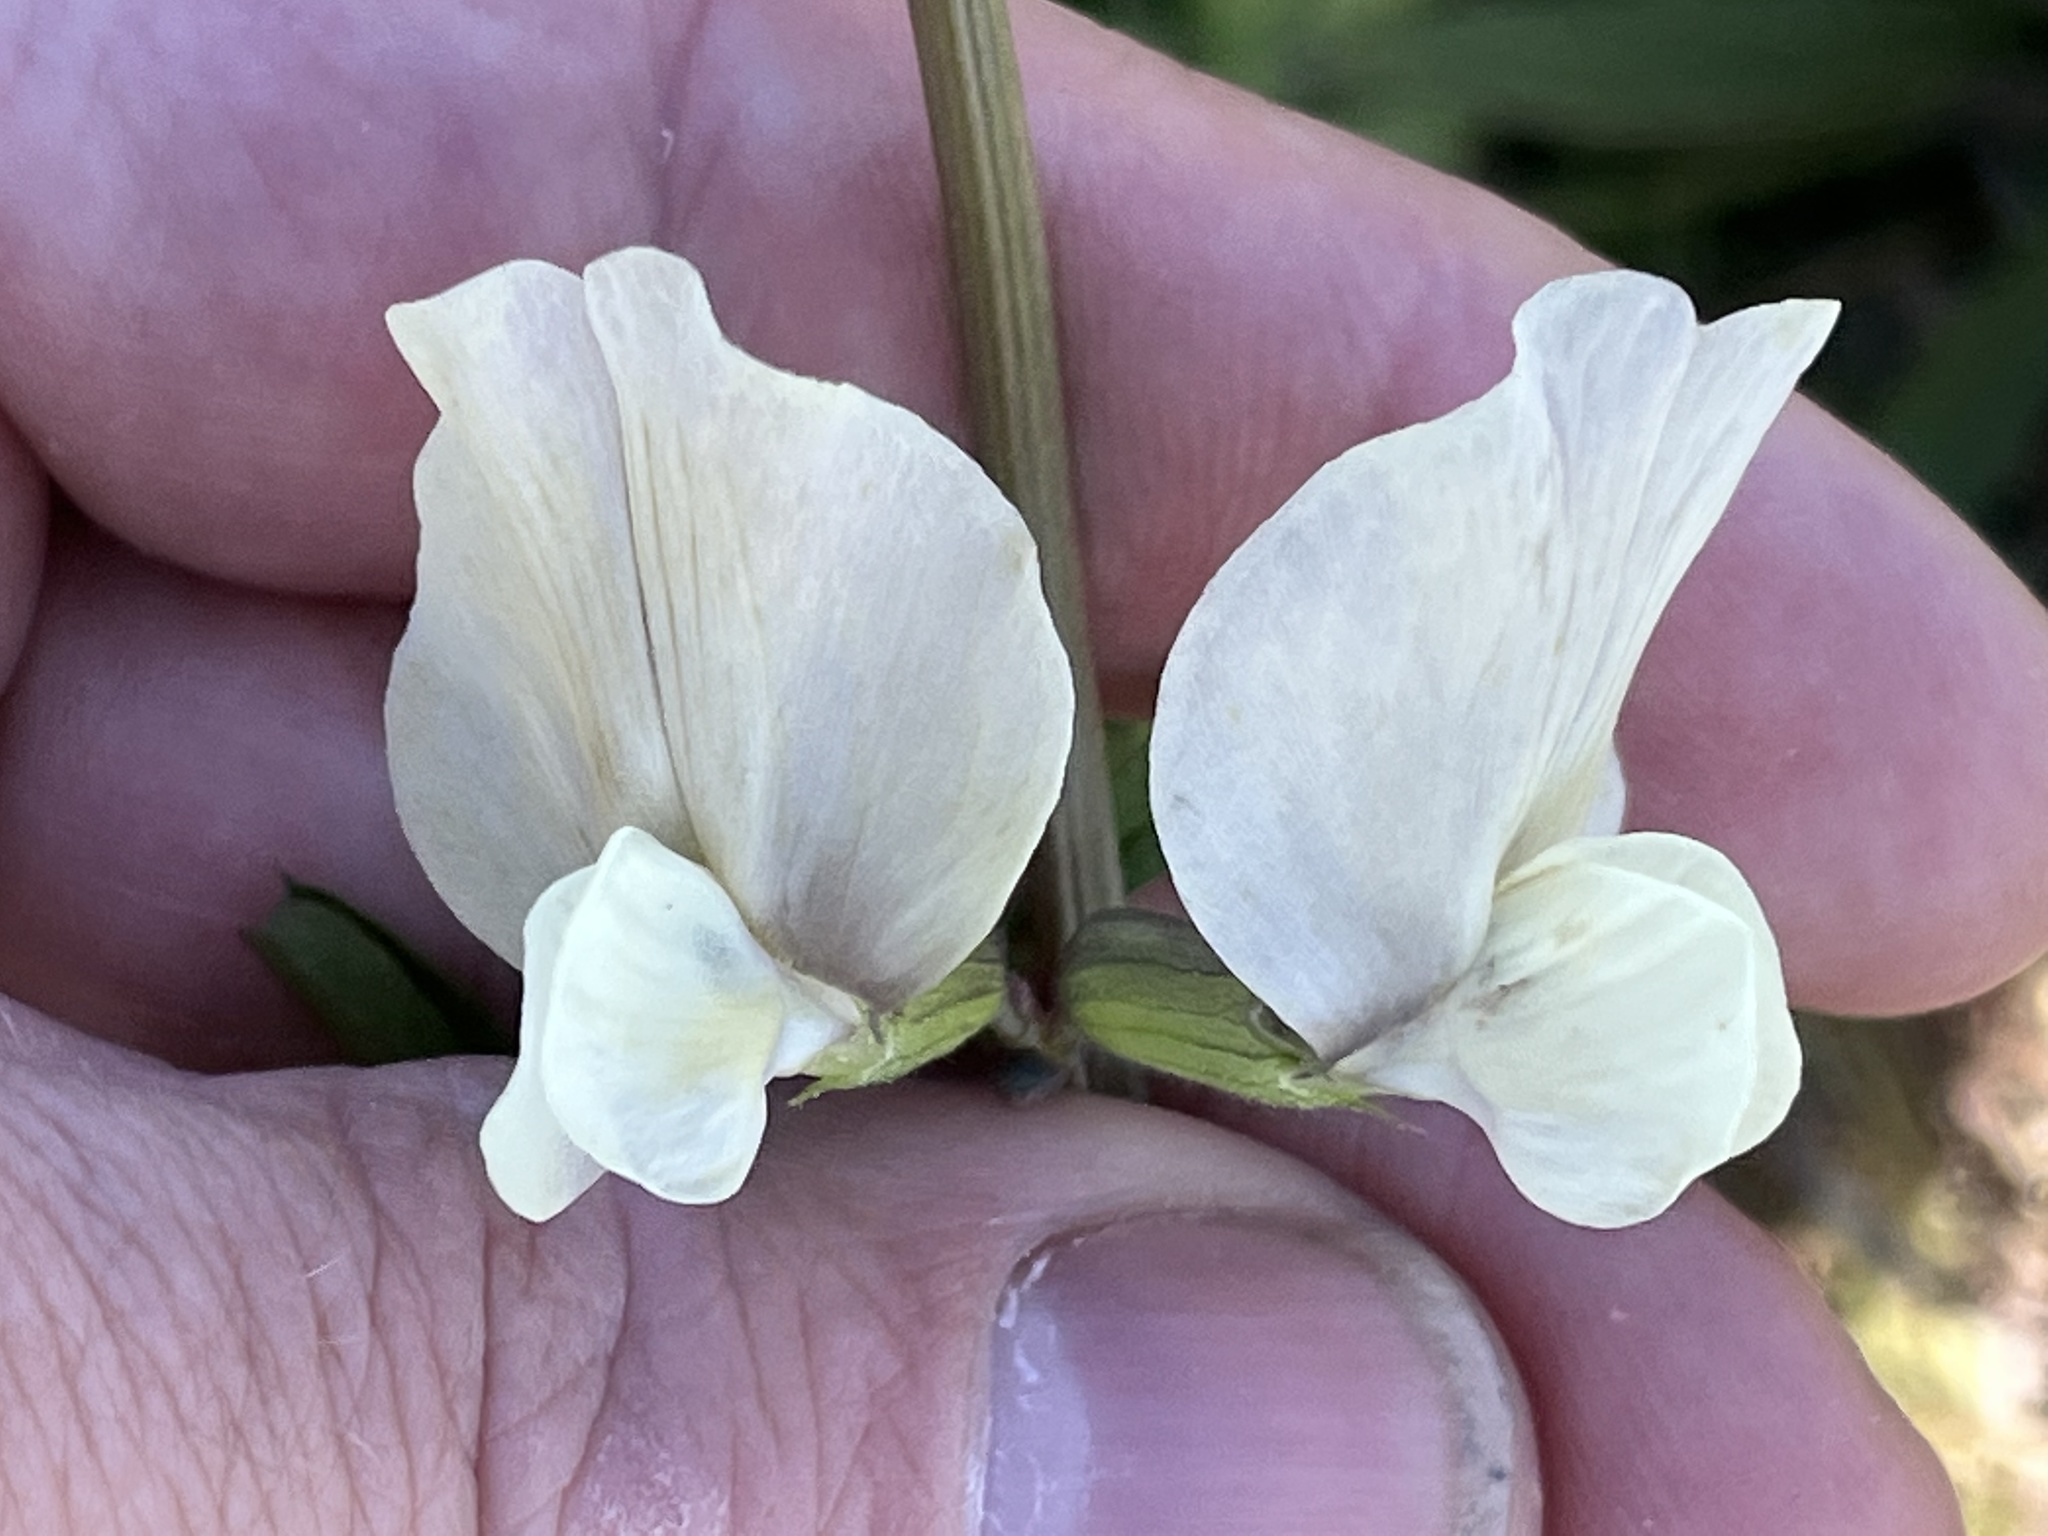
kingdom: Plantae
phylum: Tracheophyta
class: Magnoliopsida
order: Fabales
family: Fabaceae
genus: Vicia
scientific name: Vicia grandiflora
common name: Large yellow vetch
